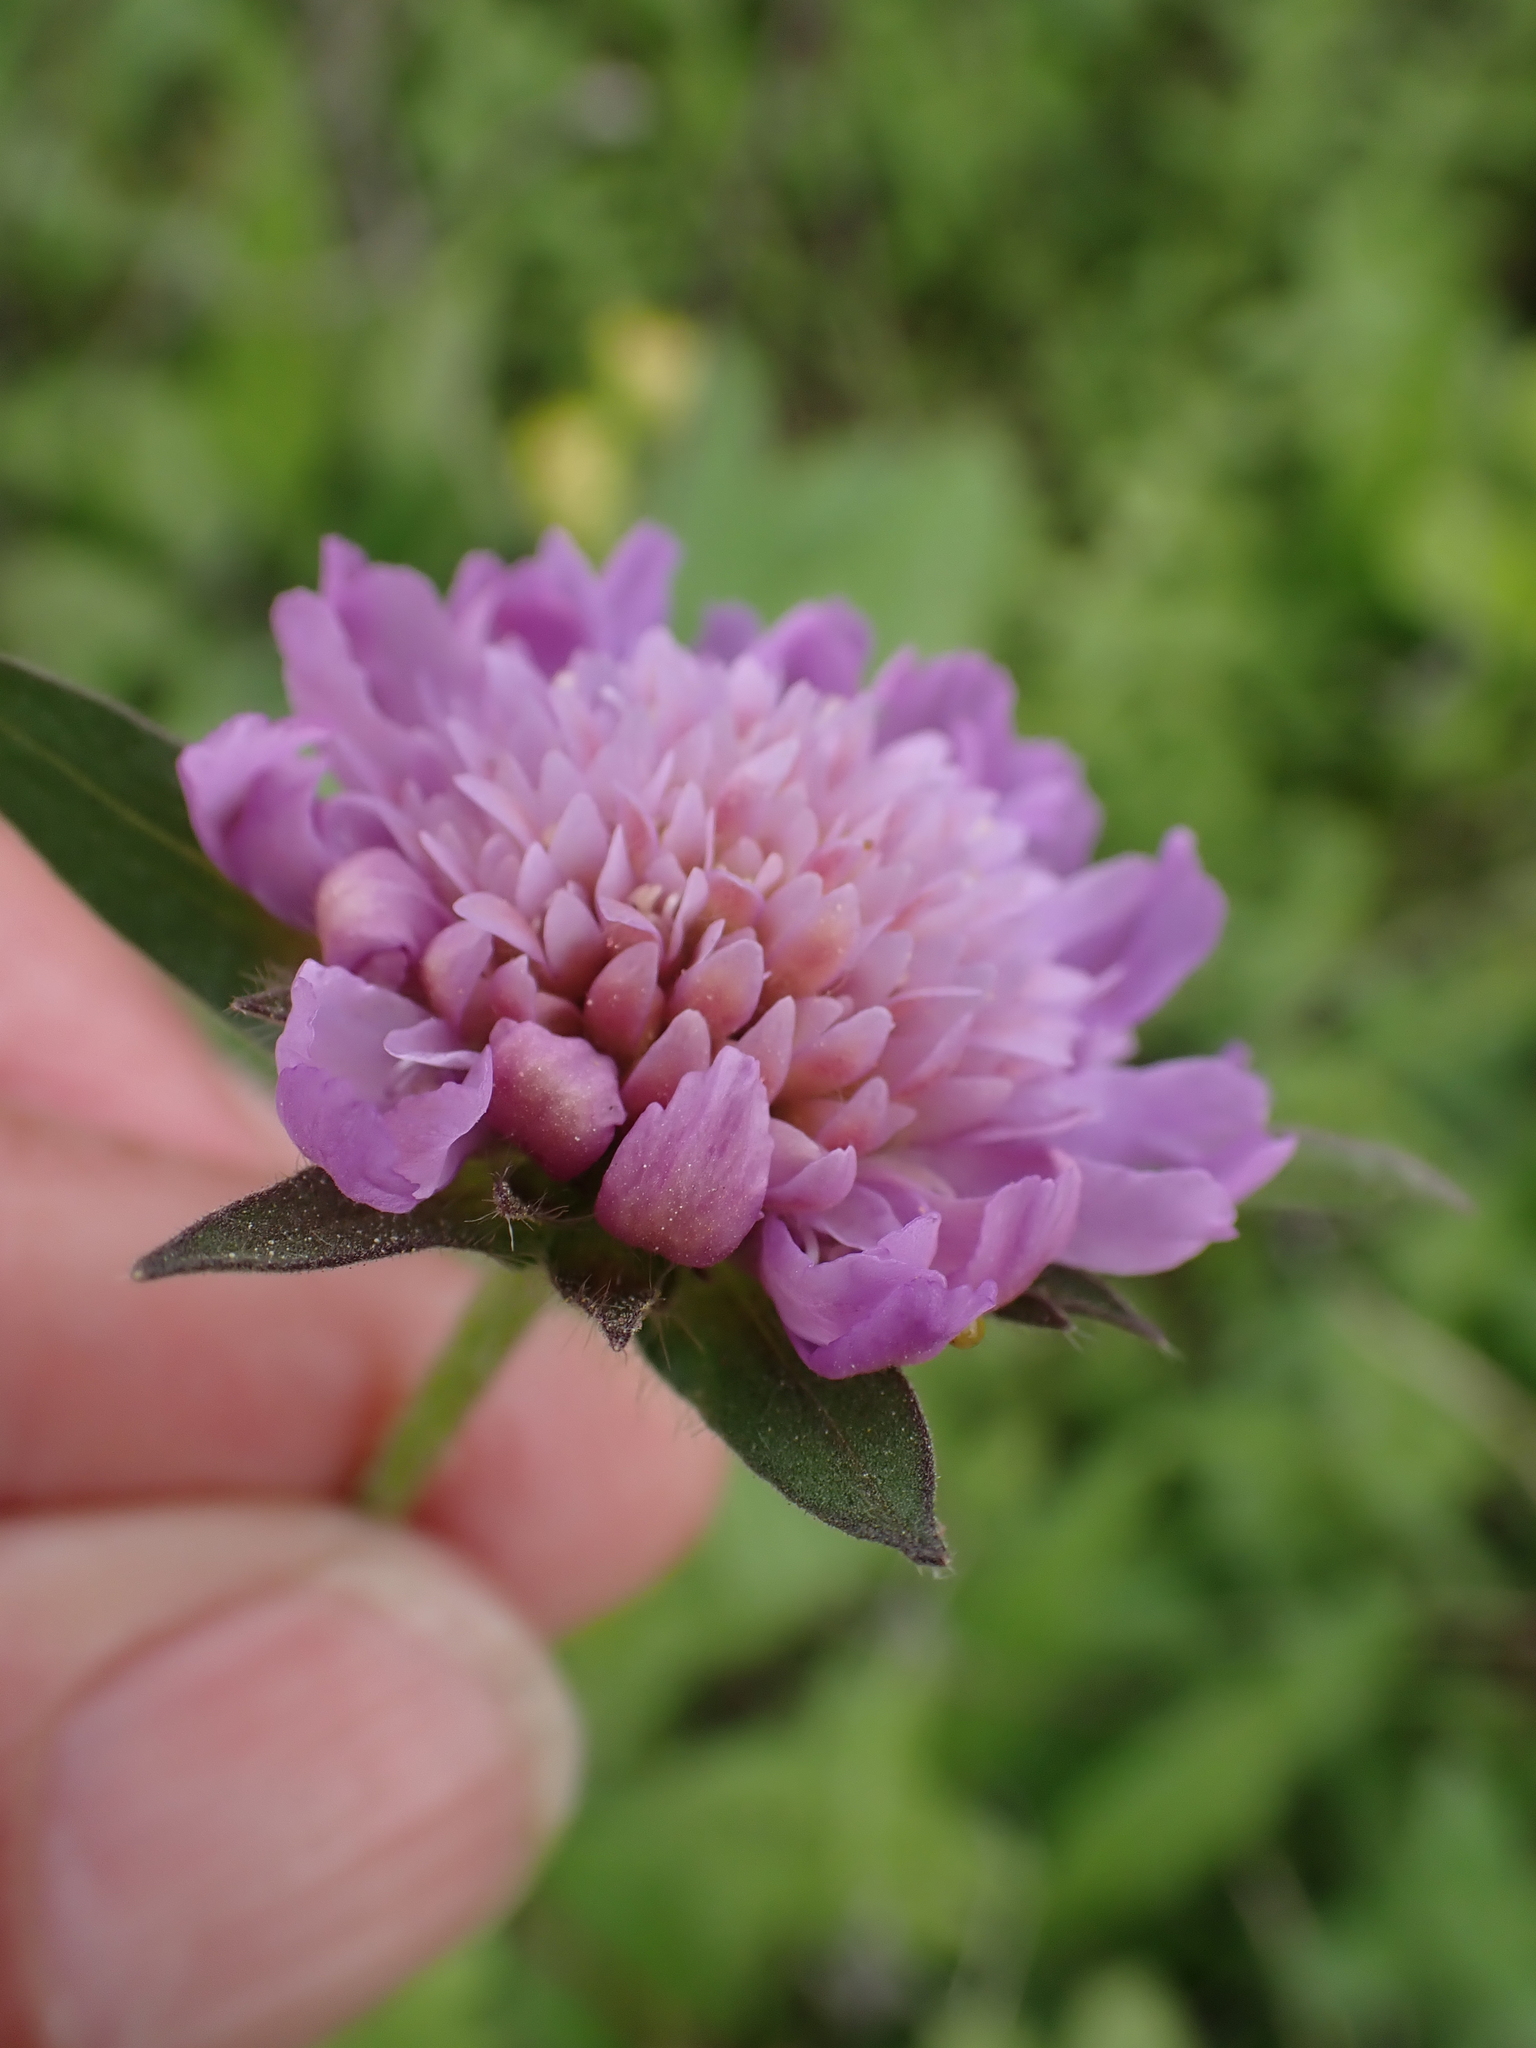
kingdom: Plantae
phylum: Tracheophyta
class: Magnoliopsida
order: Dipsacales
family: Caprifoliaceae
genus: Knautia
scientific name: Knautia arvensis
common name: Field scabiosa
